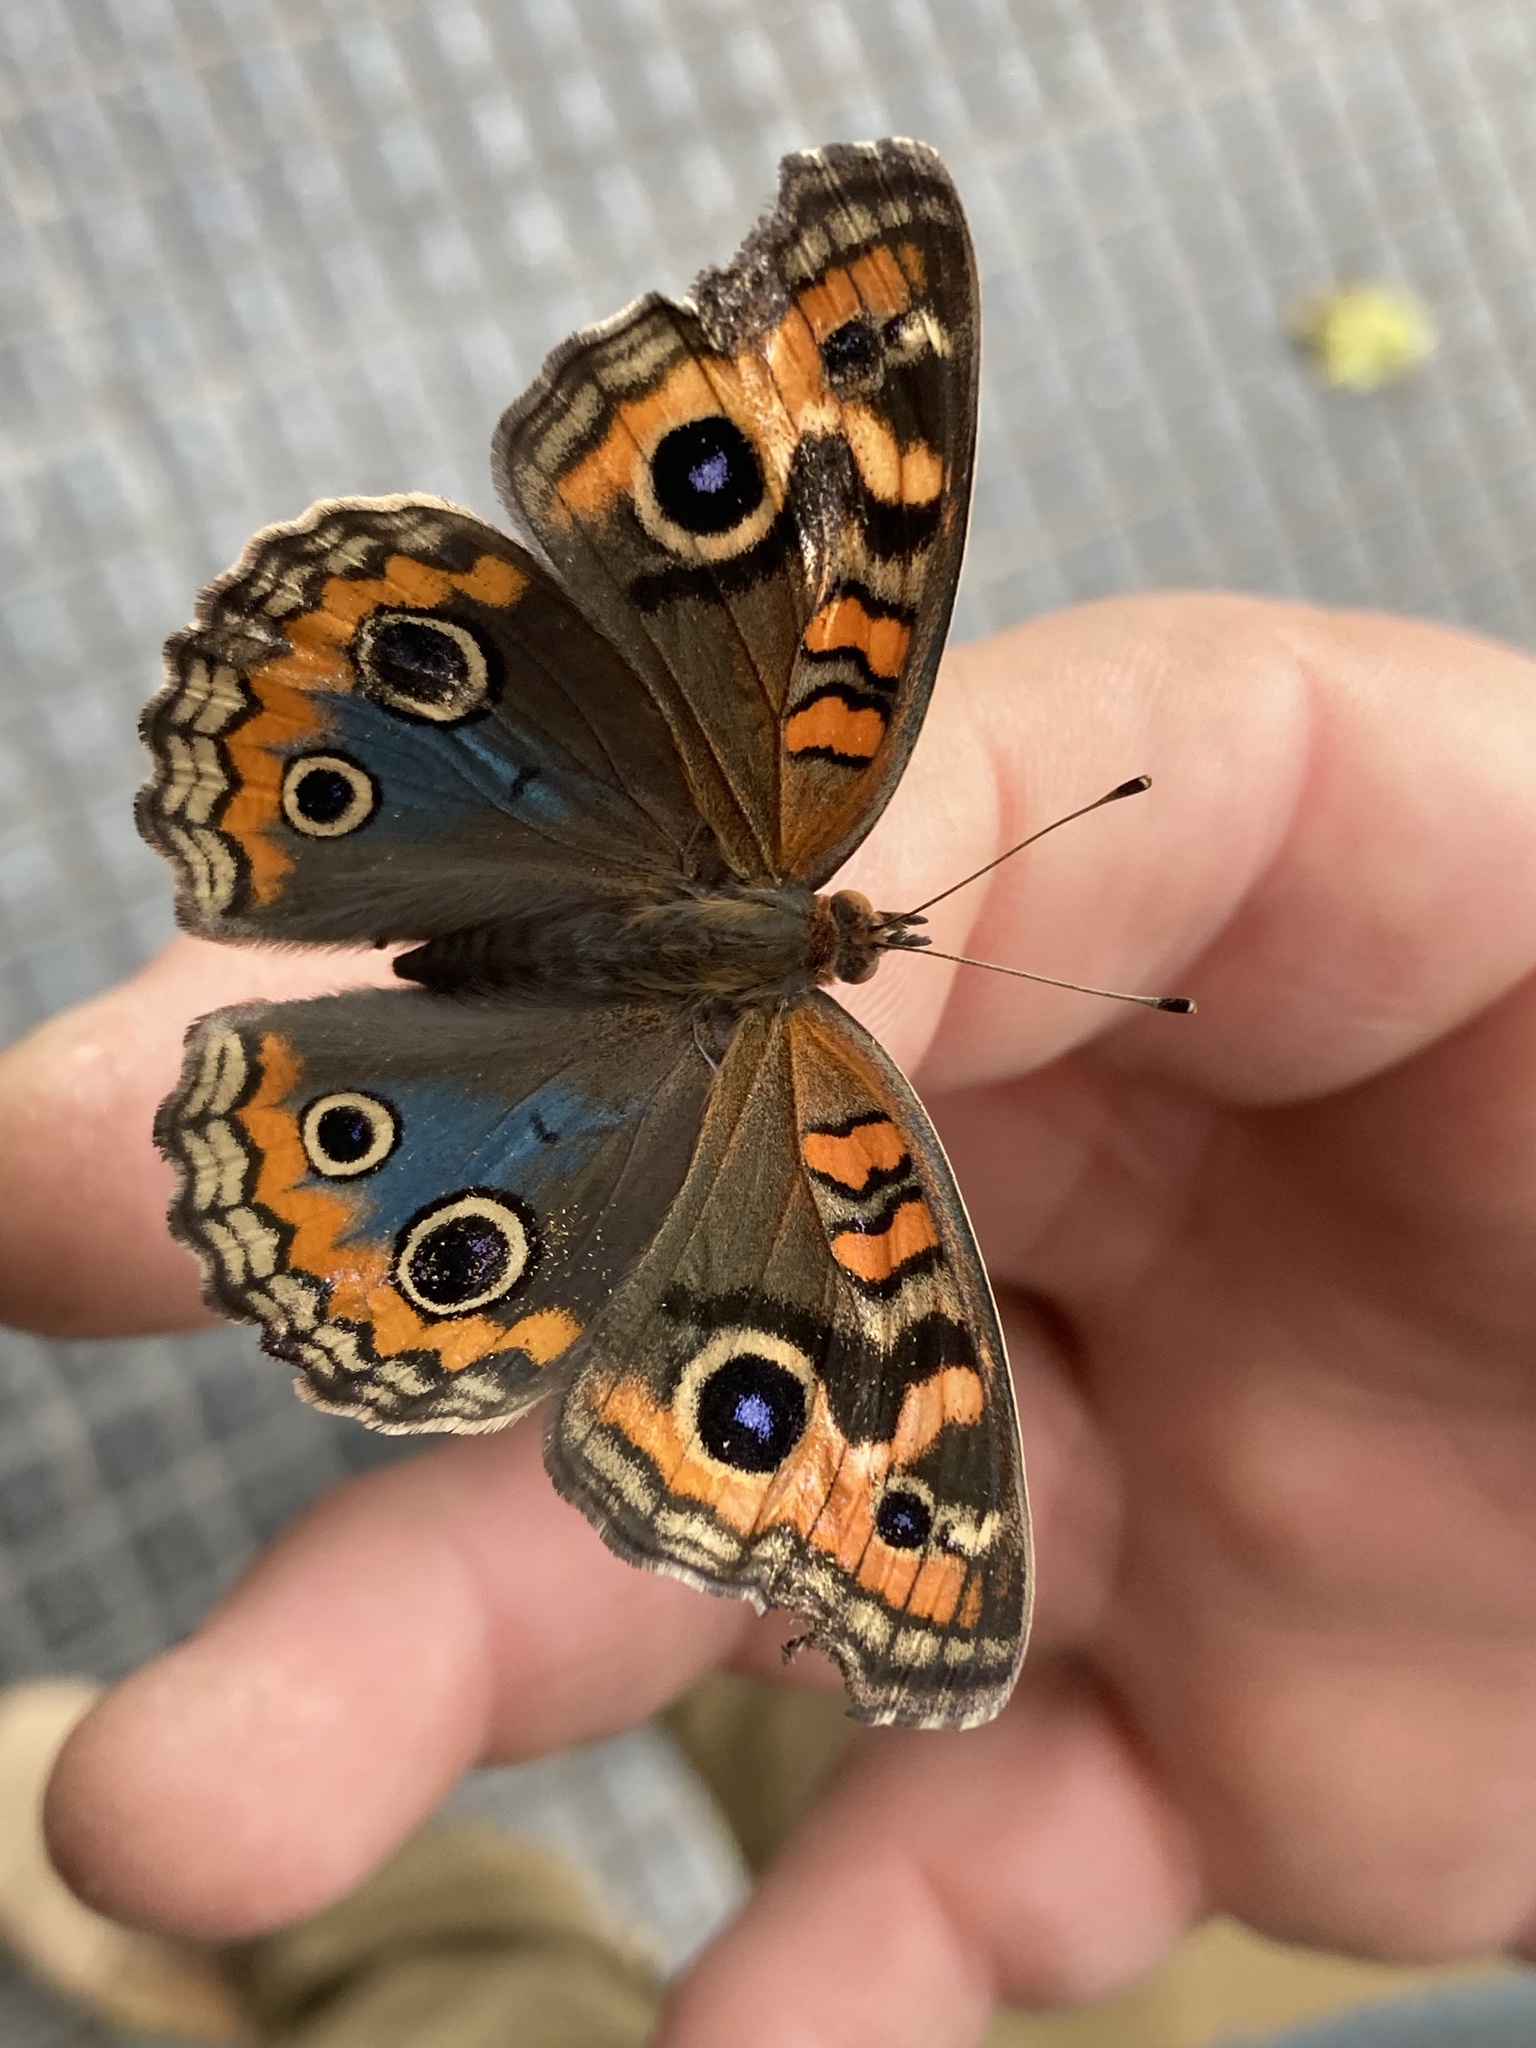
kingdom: Animalia
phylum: Arthropoda
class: Insecta
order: Lepidoptera
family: Nymphalidae
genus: Junonia
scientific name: Junonia lavinia
